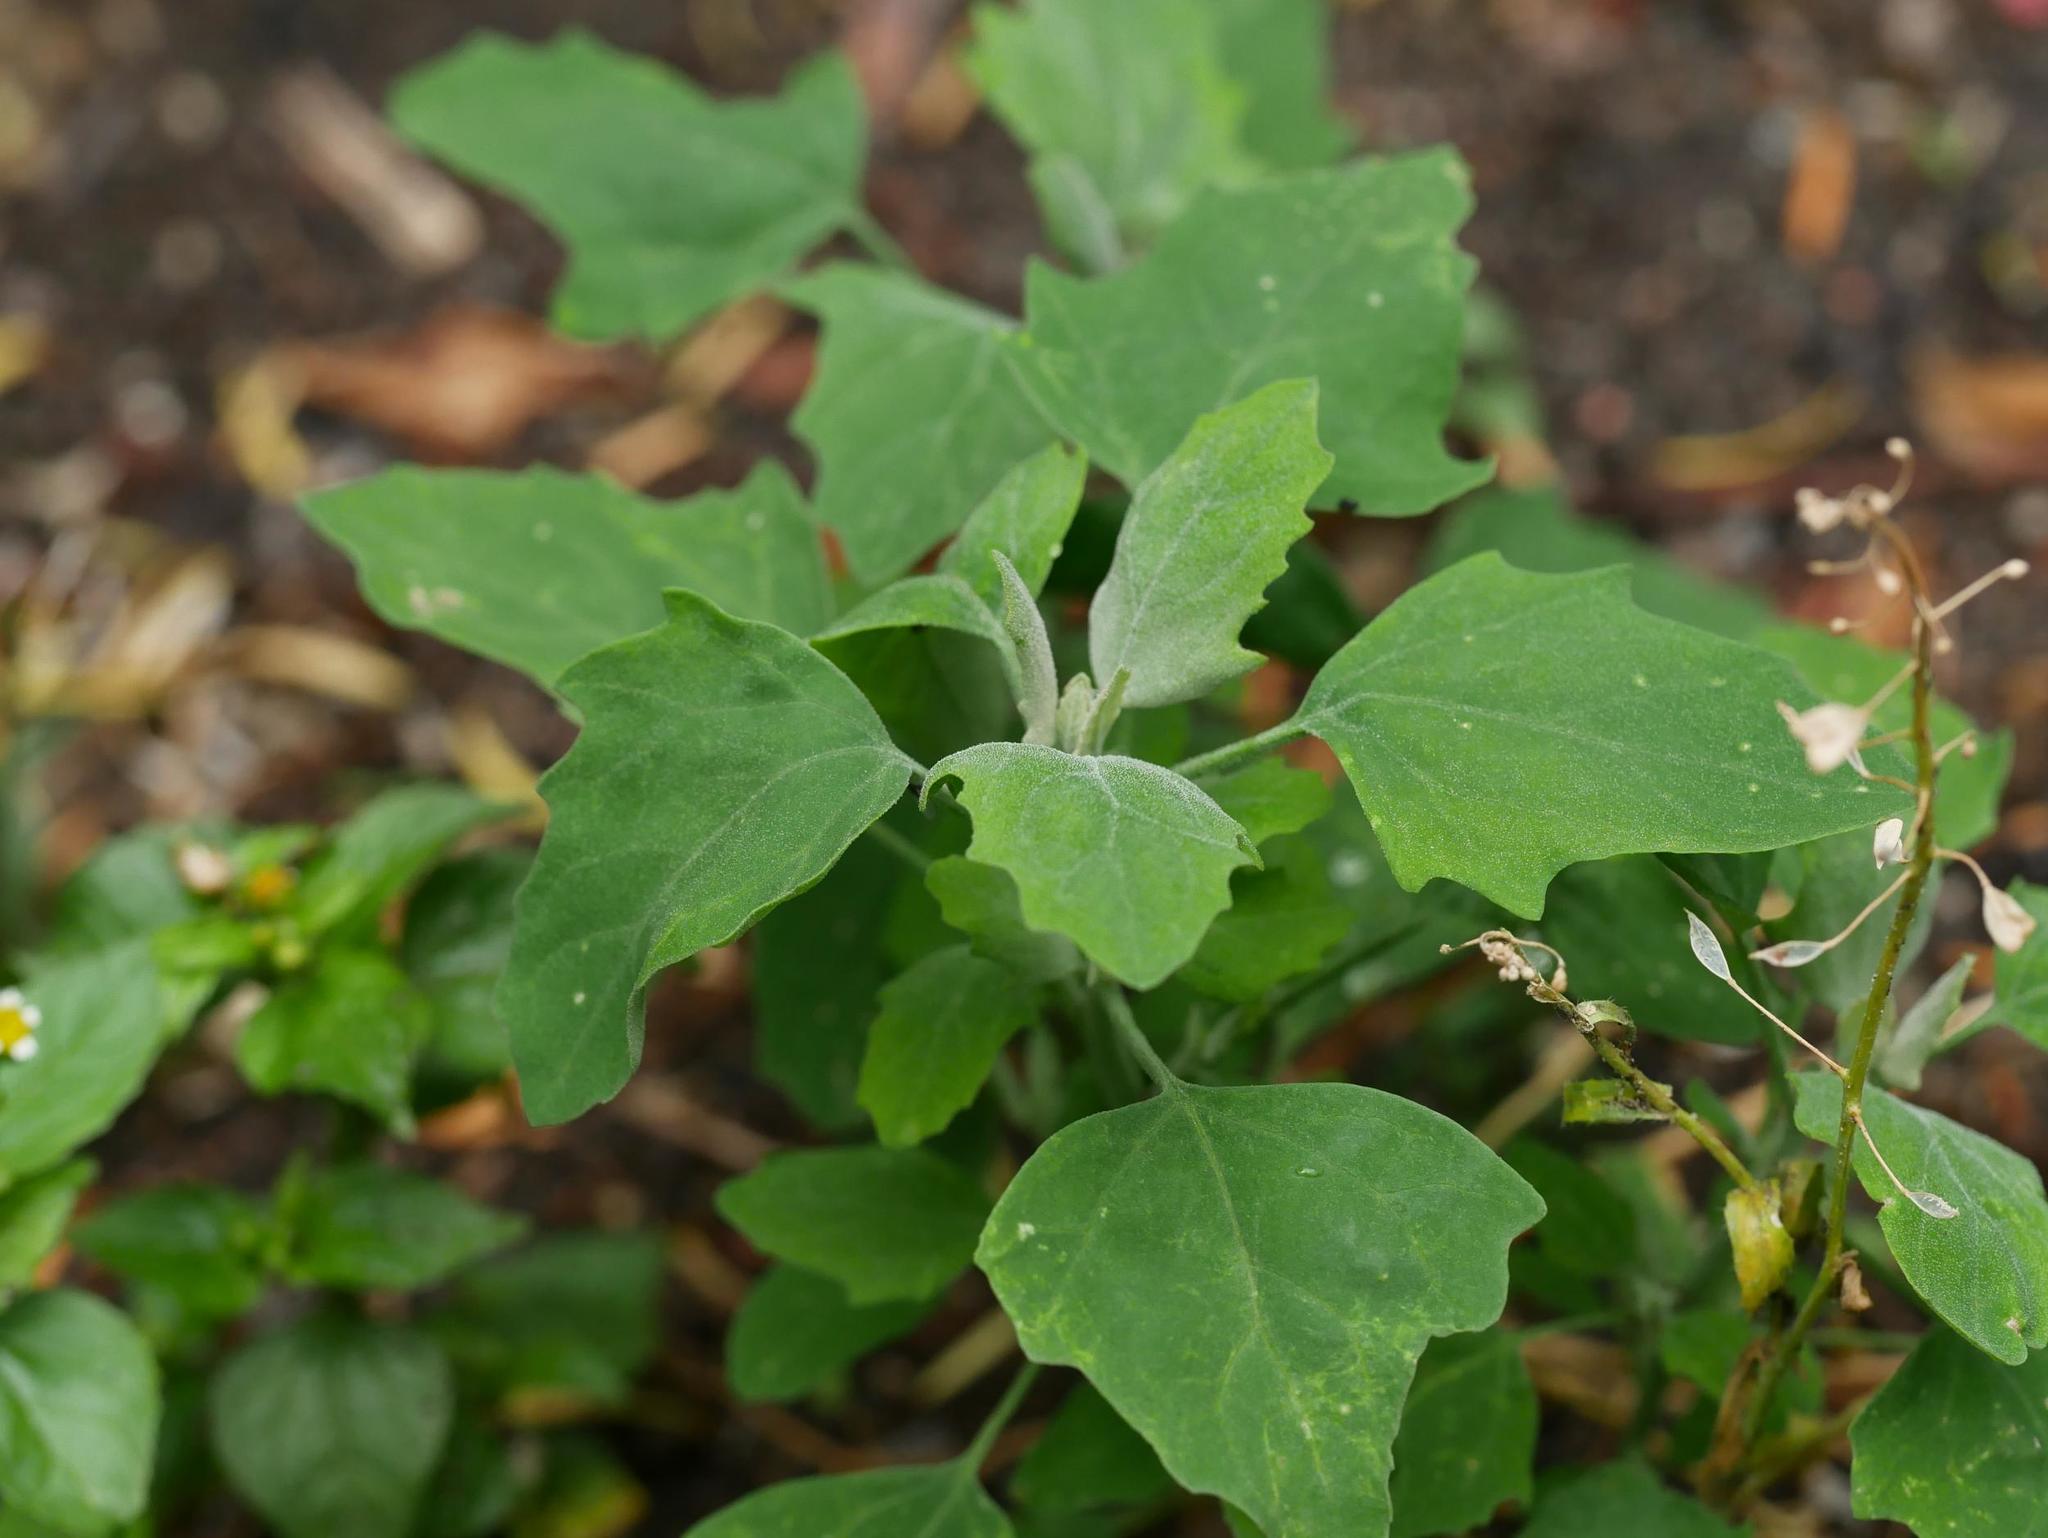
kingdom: Plantae
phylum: Tracheophyta
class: Magnoliopsida
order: Caryophyllales
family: Amaranthaceae
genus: Chenopodium
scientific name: Chenopodium album
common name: Fat-hen
